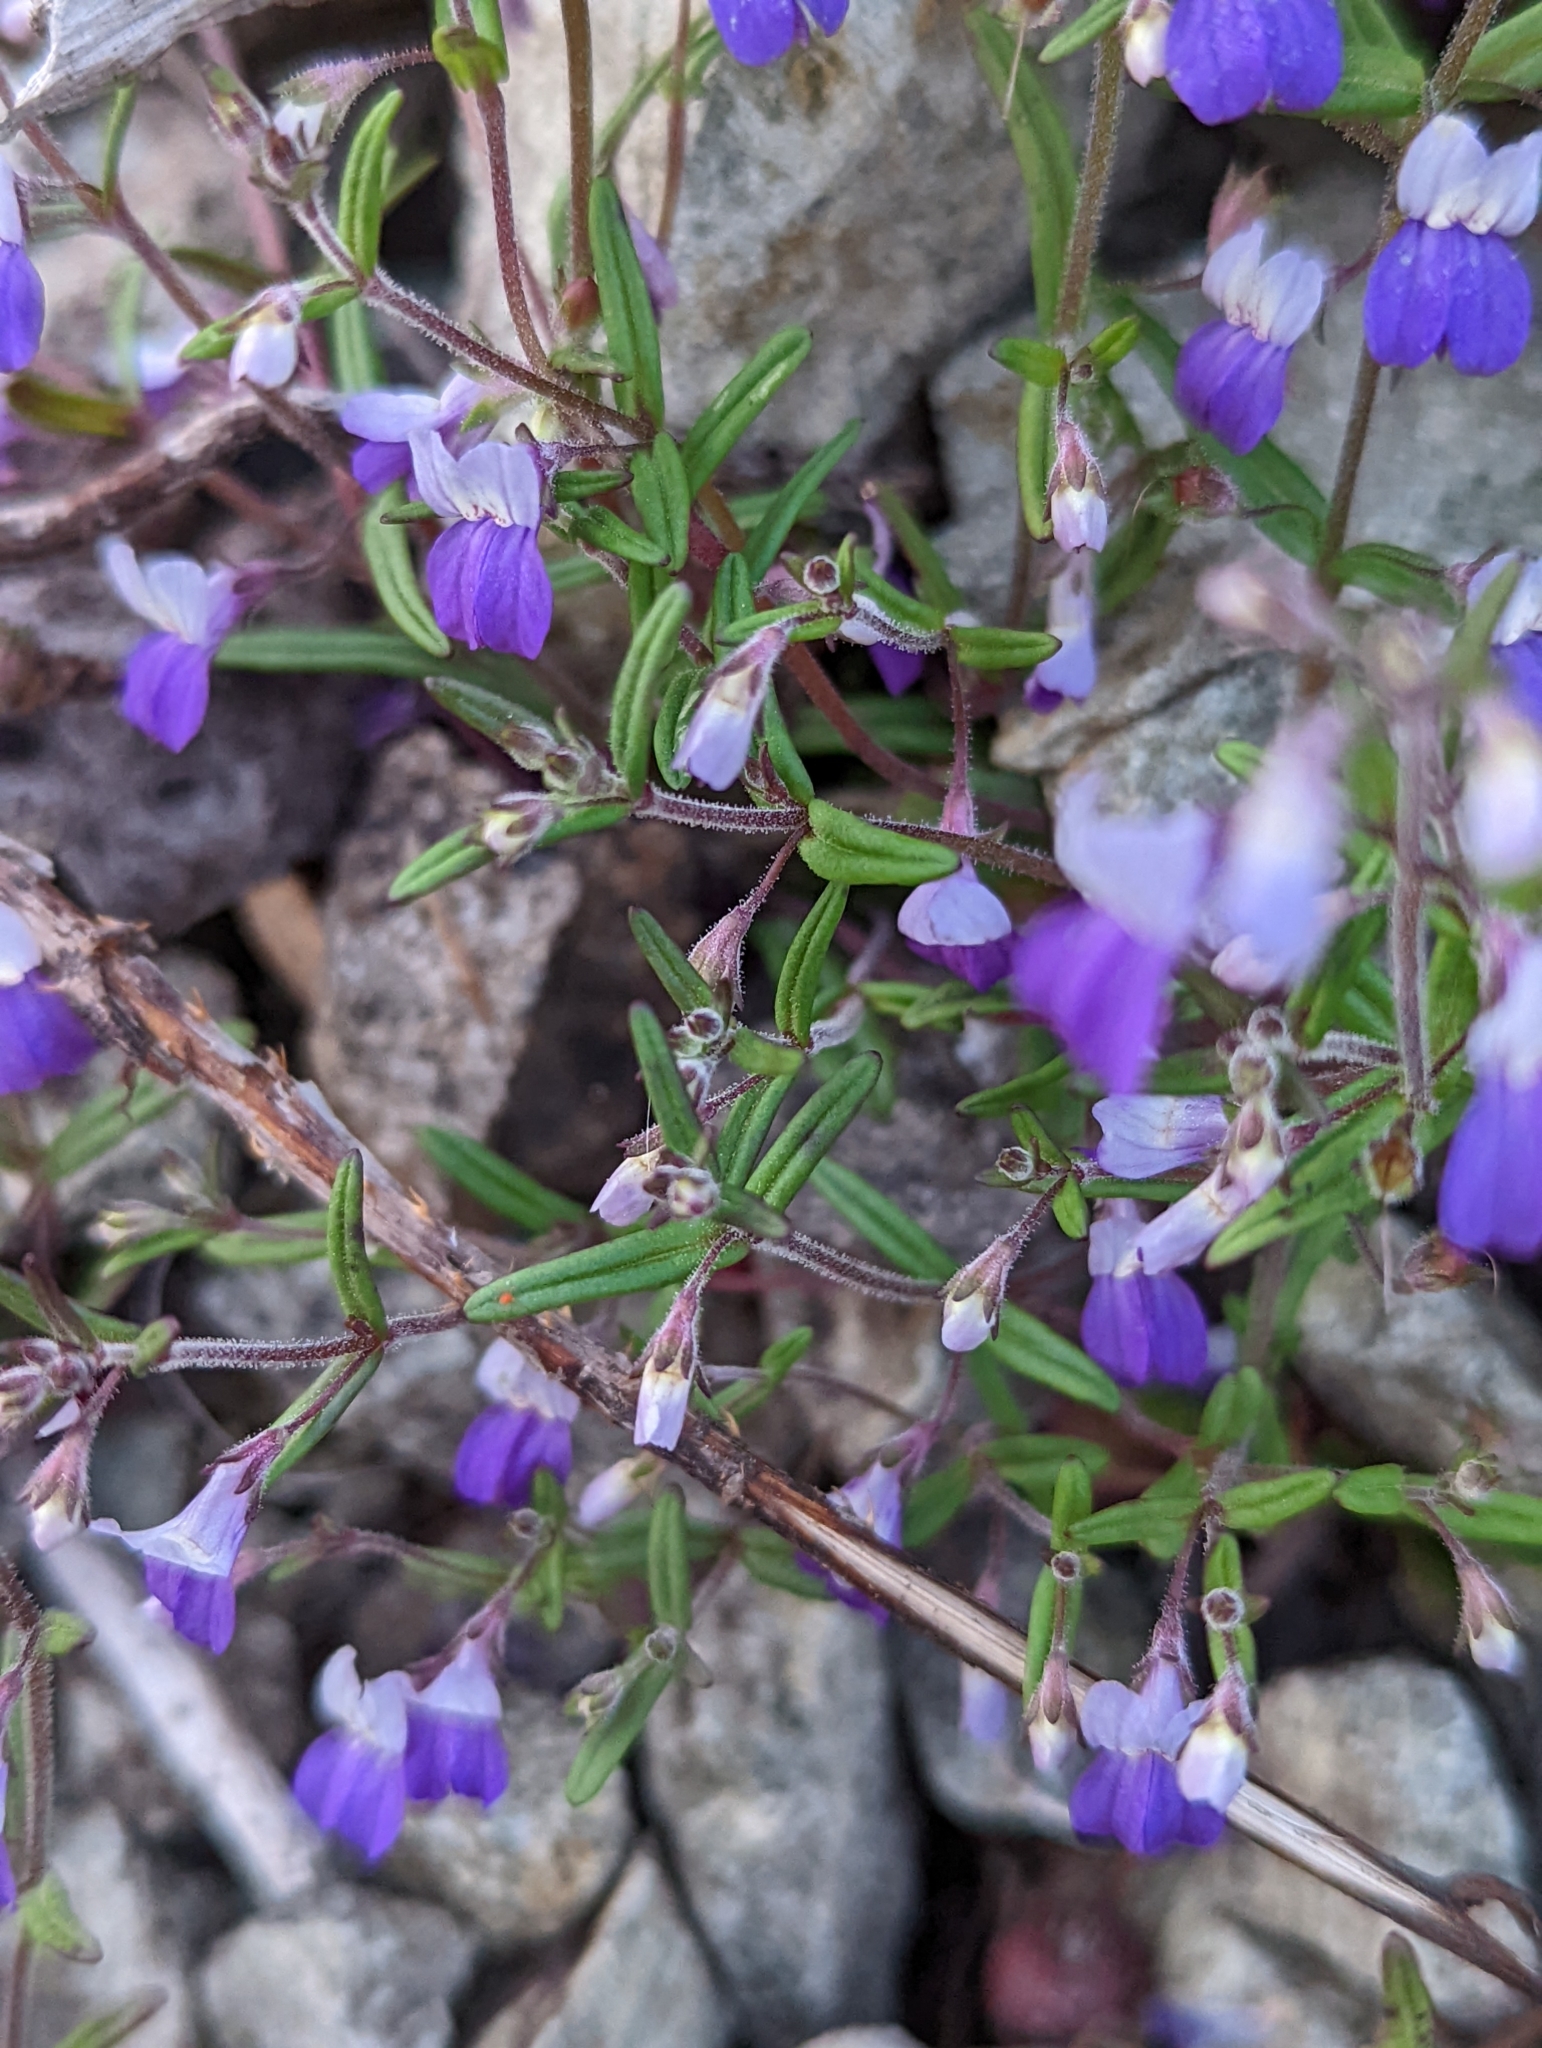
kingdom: Plantae
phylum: Tracheophyta
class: Magnoliopsida
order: Lamiales
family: Plantaginaceae
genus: Collinsia
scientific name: Collinsia linearis
